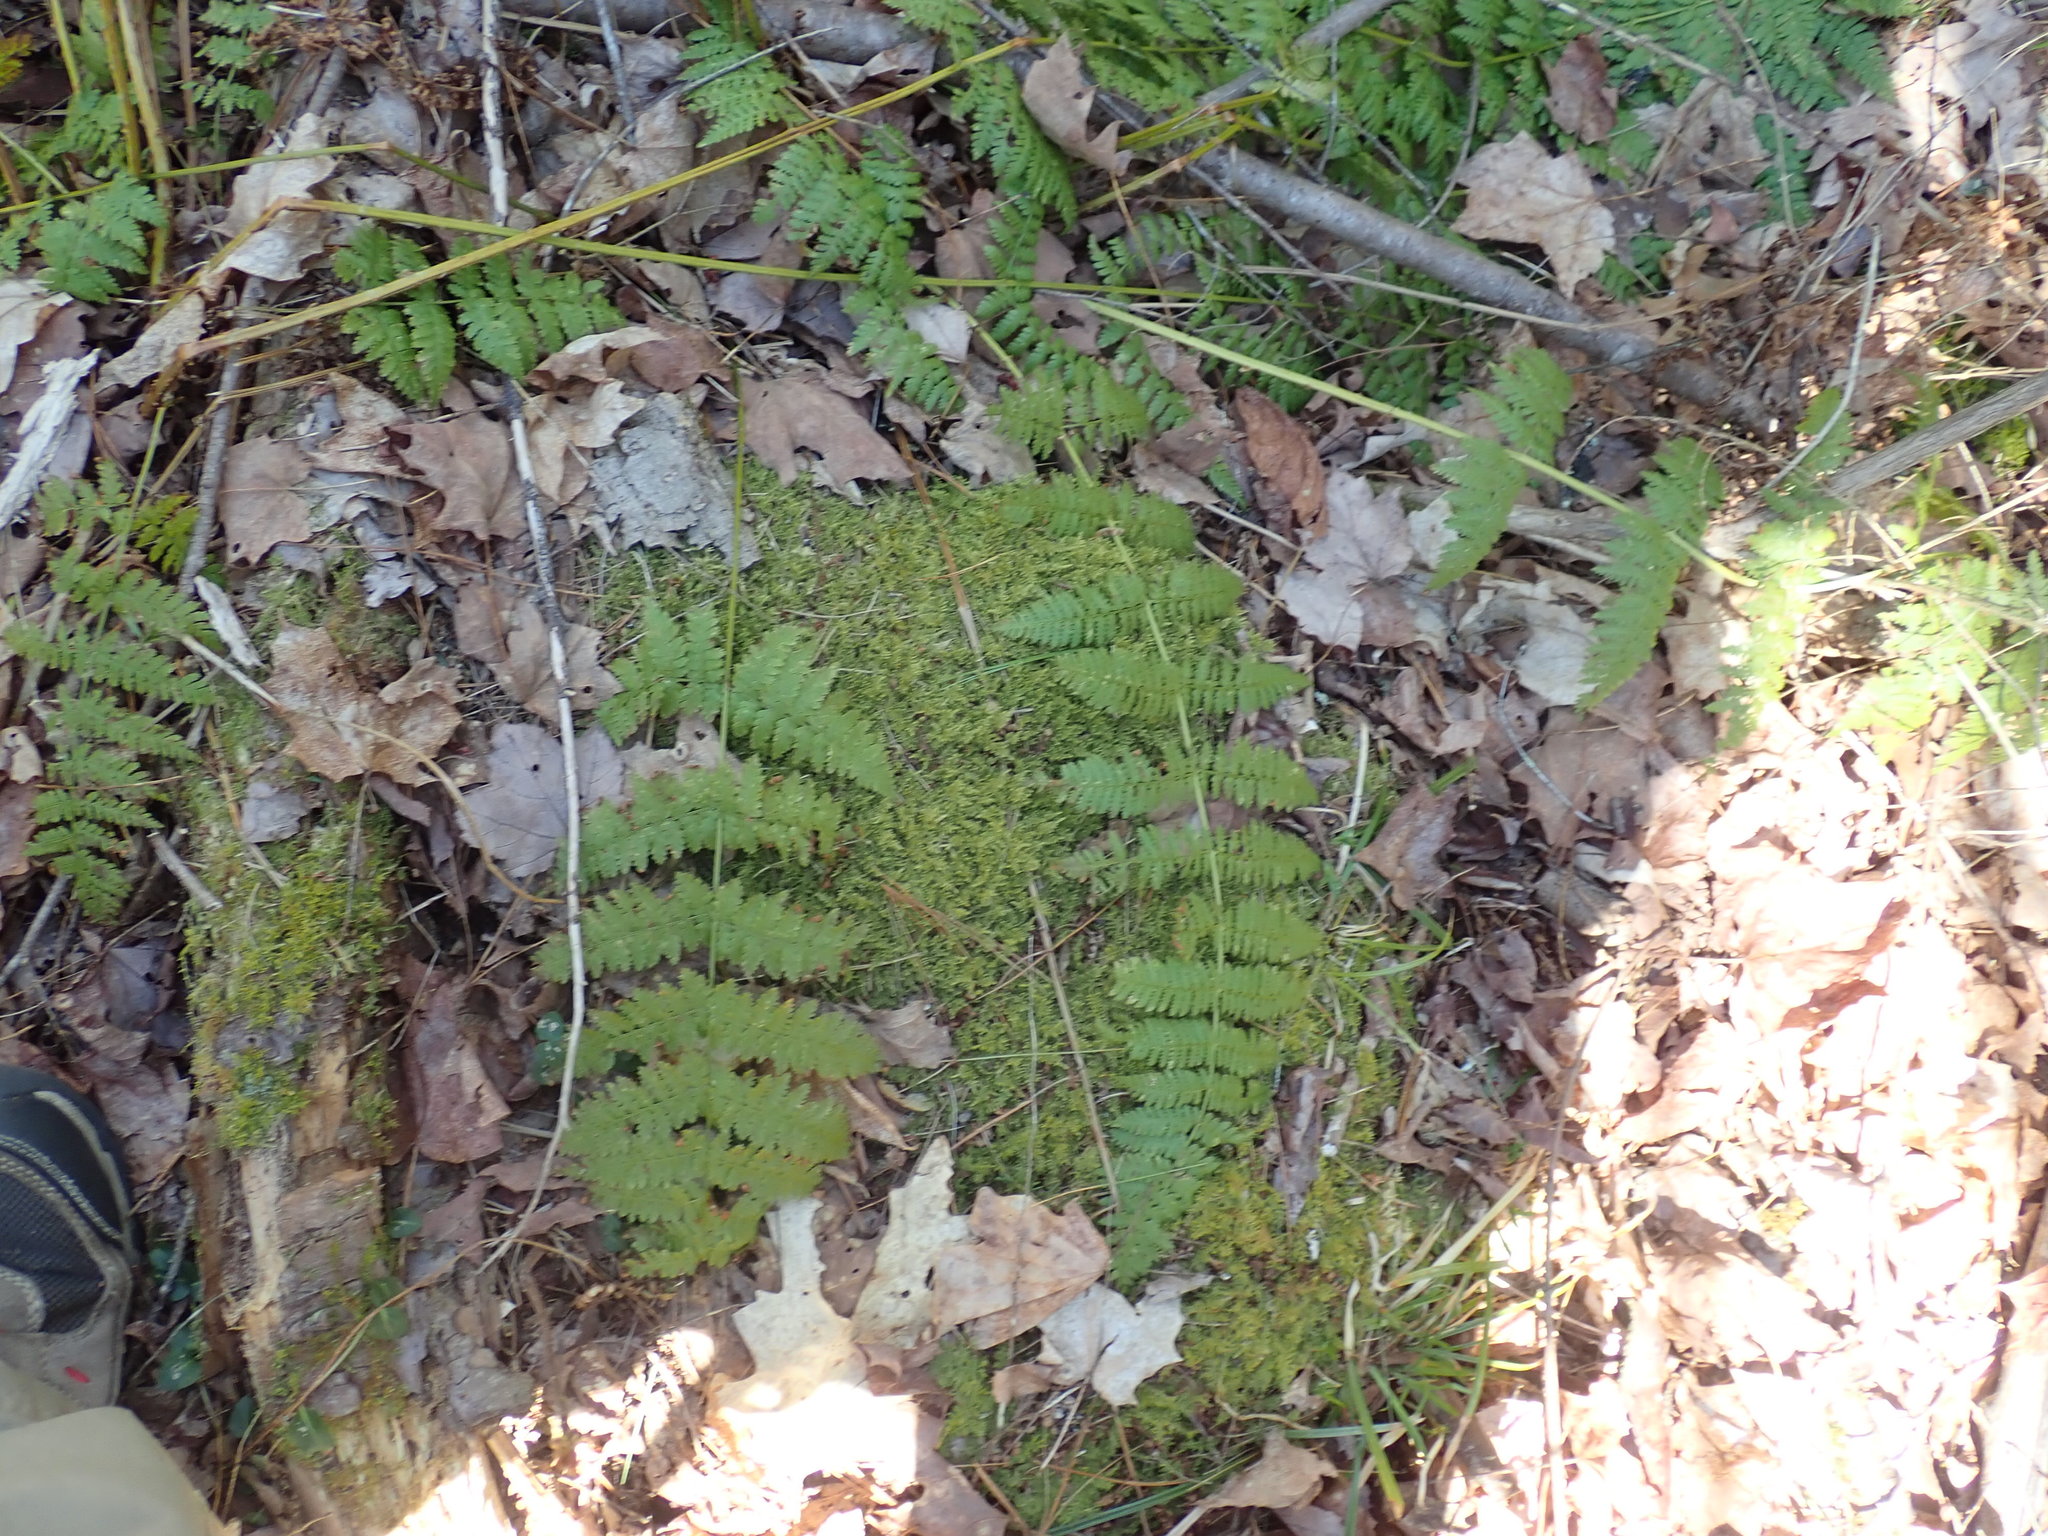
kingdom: Plantae
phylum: Tracheophyta
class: Polypodiopsida
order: Polypodiales
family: Dryopteridaceae
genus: Dryopteris
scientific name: Dryopteris intermedia
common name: Evergreen wood fern
